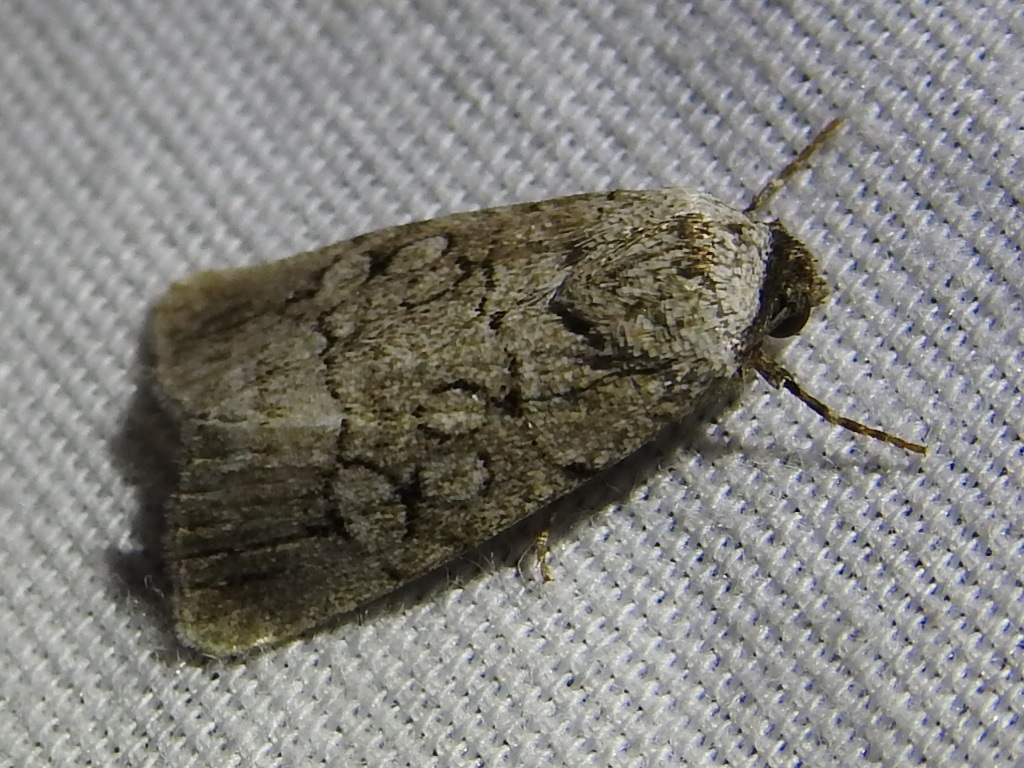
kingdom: Animalia
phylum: Arthropoda
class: Insecta
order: Lepidoptera
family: Noctuidae
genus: Sympistis
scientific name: Sympistis sectiloides
